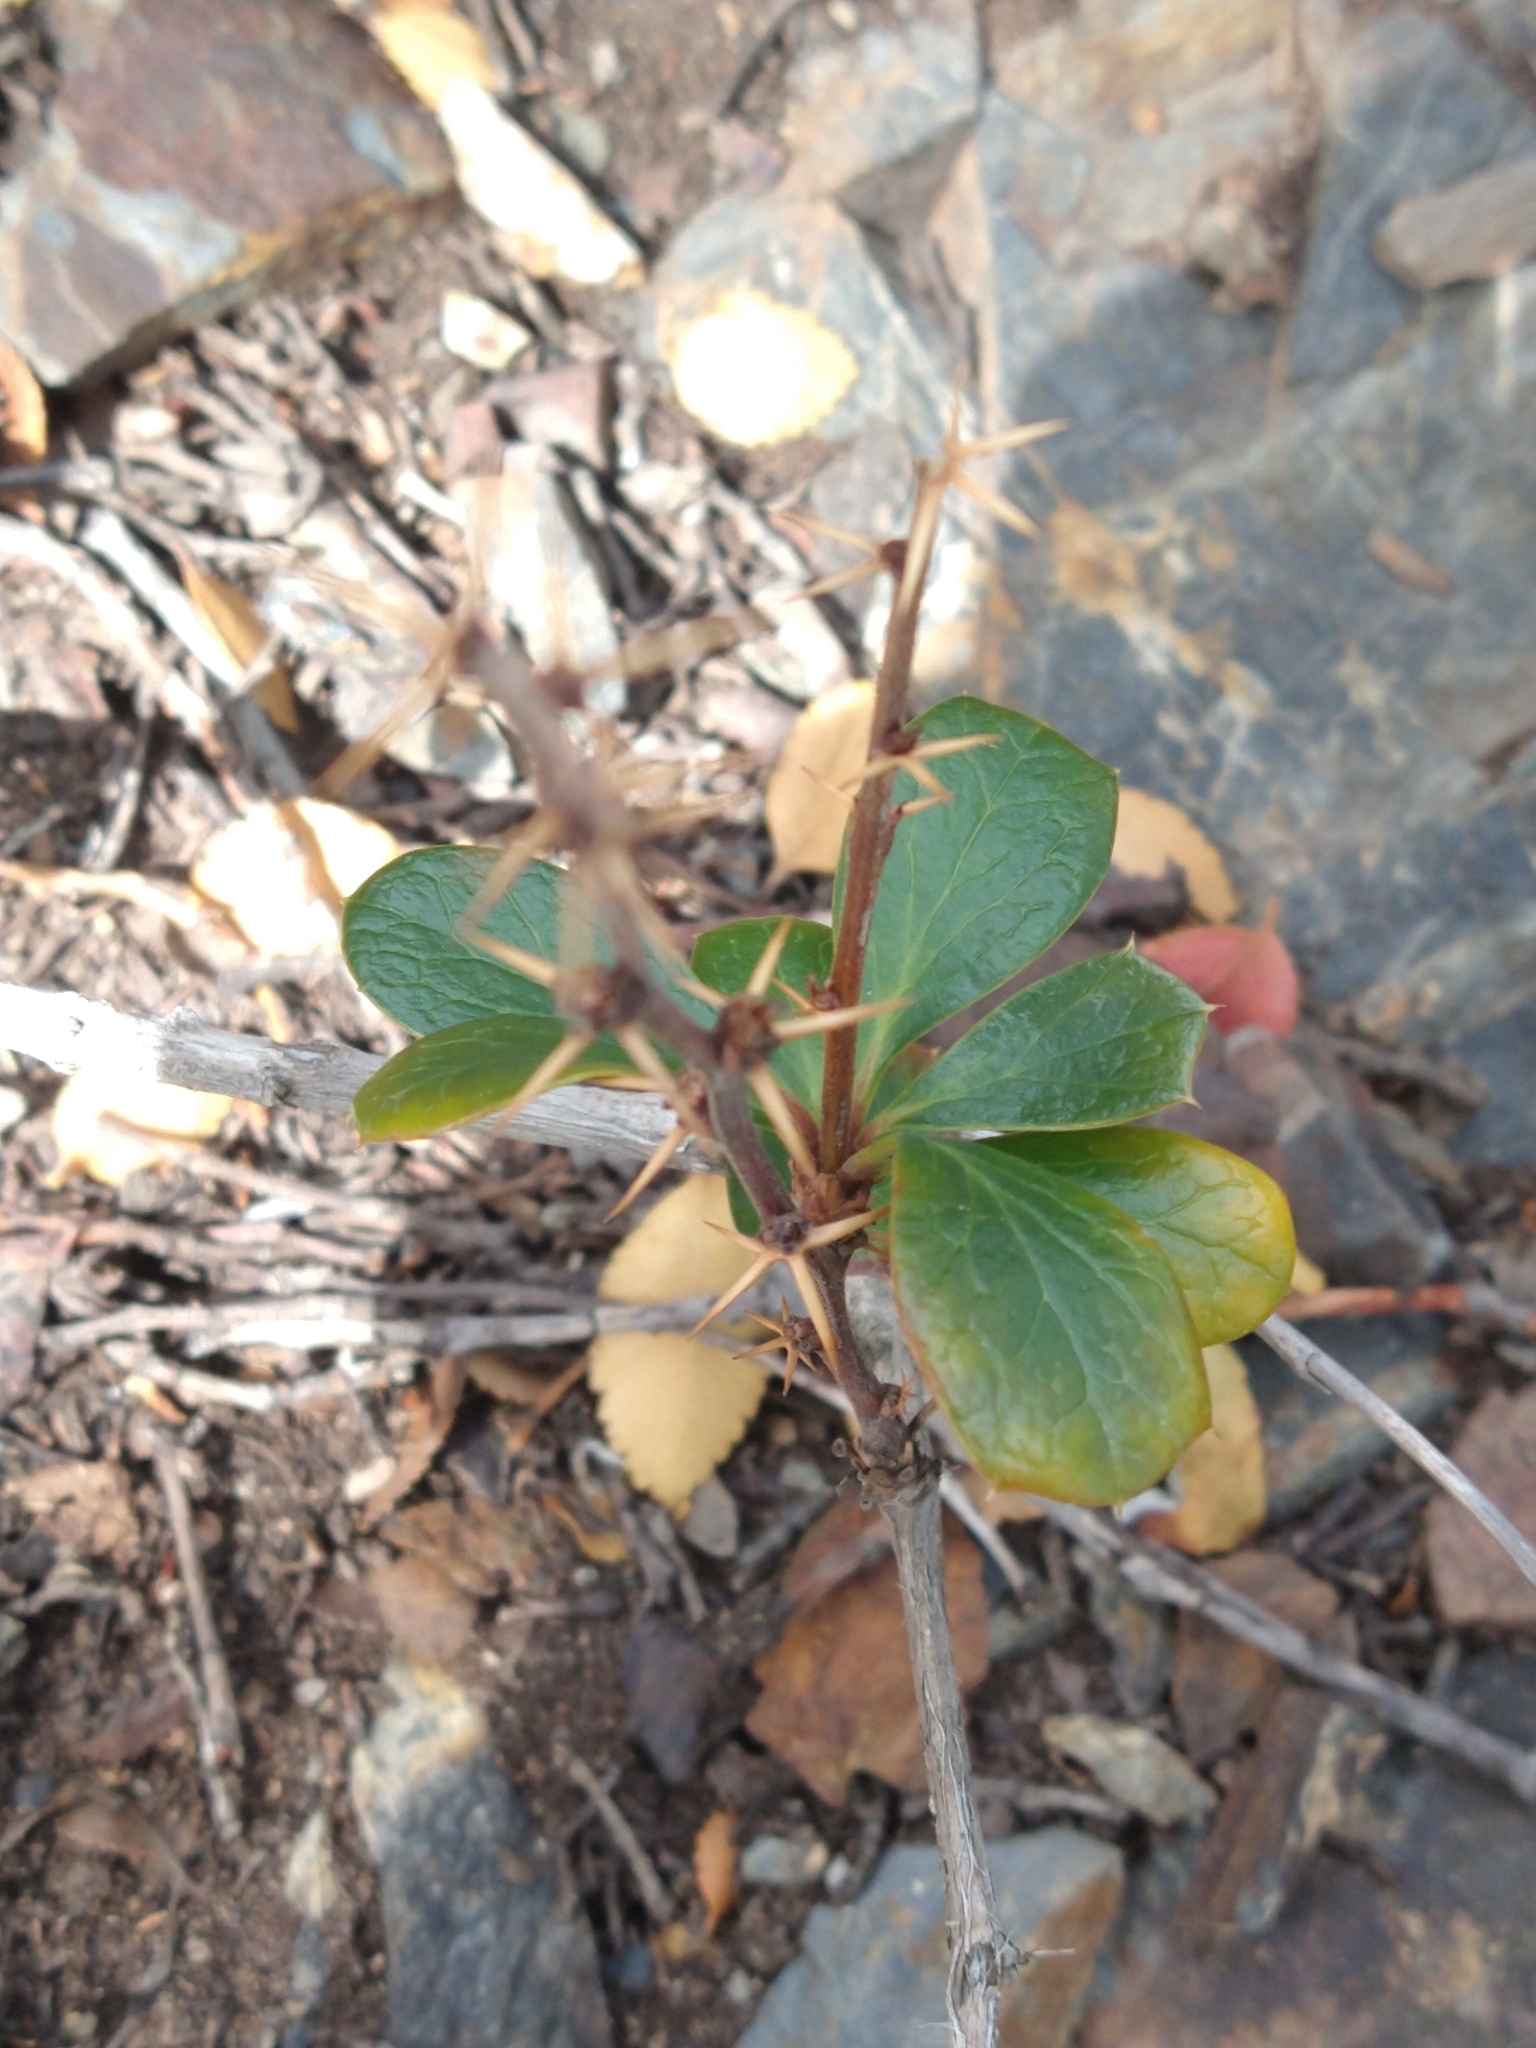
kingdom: Plantae
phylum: Tracheophyta
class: Magnoliopsida
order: Ranunculales
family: Berberidaceae
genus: Berberis
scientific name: Berberis ilicifolia
